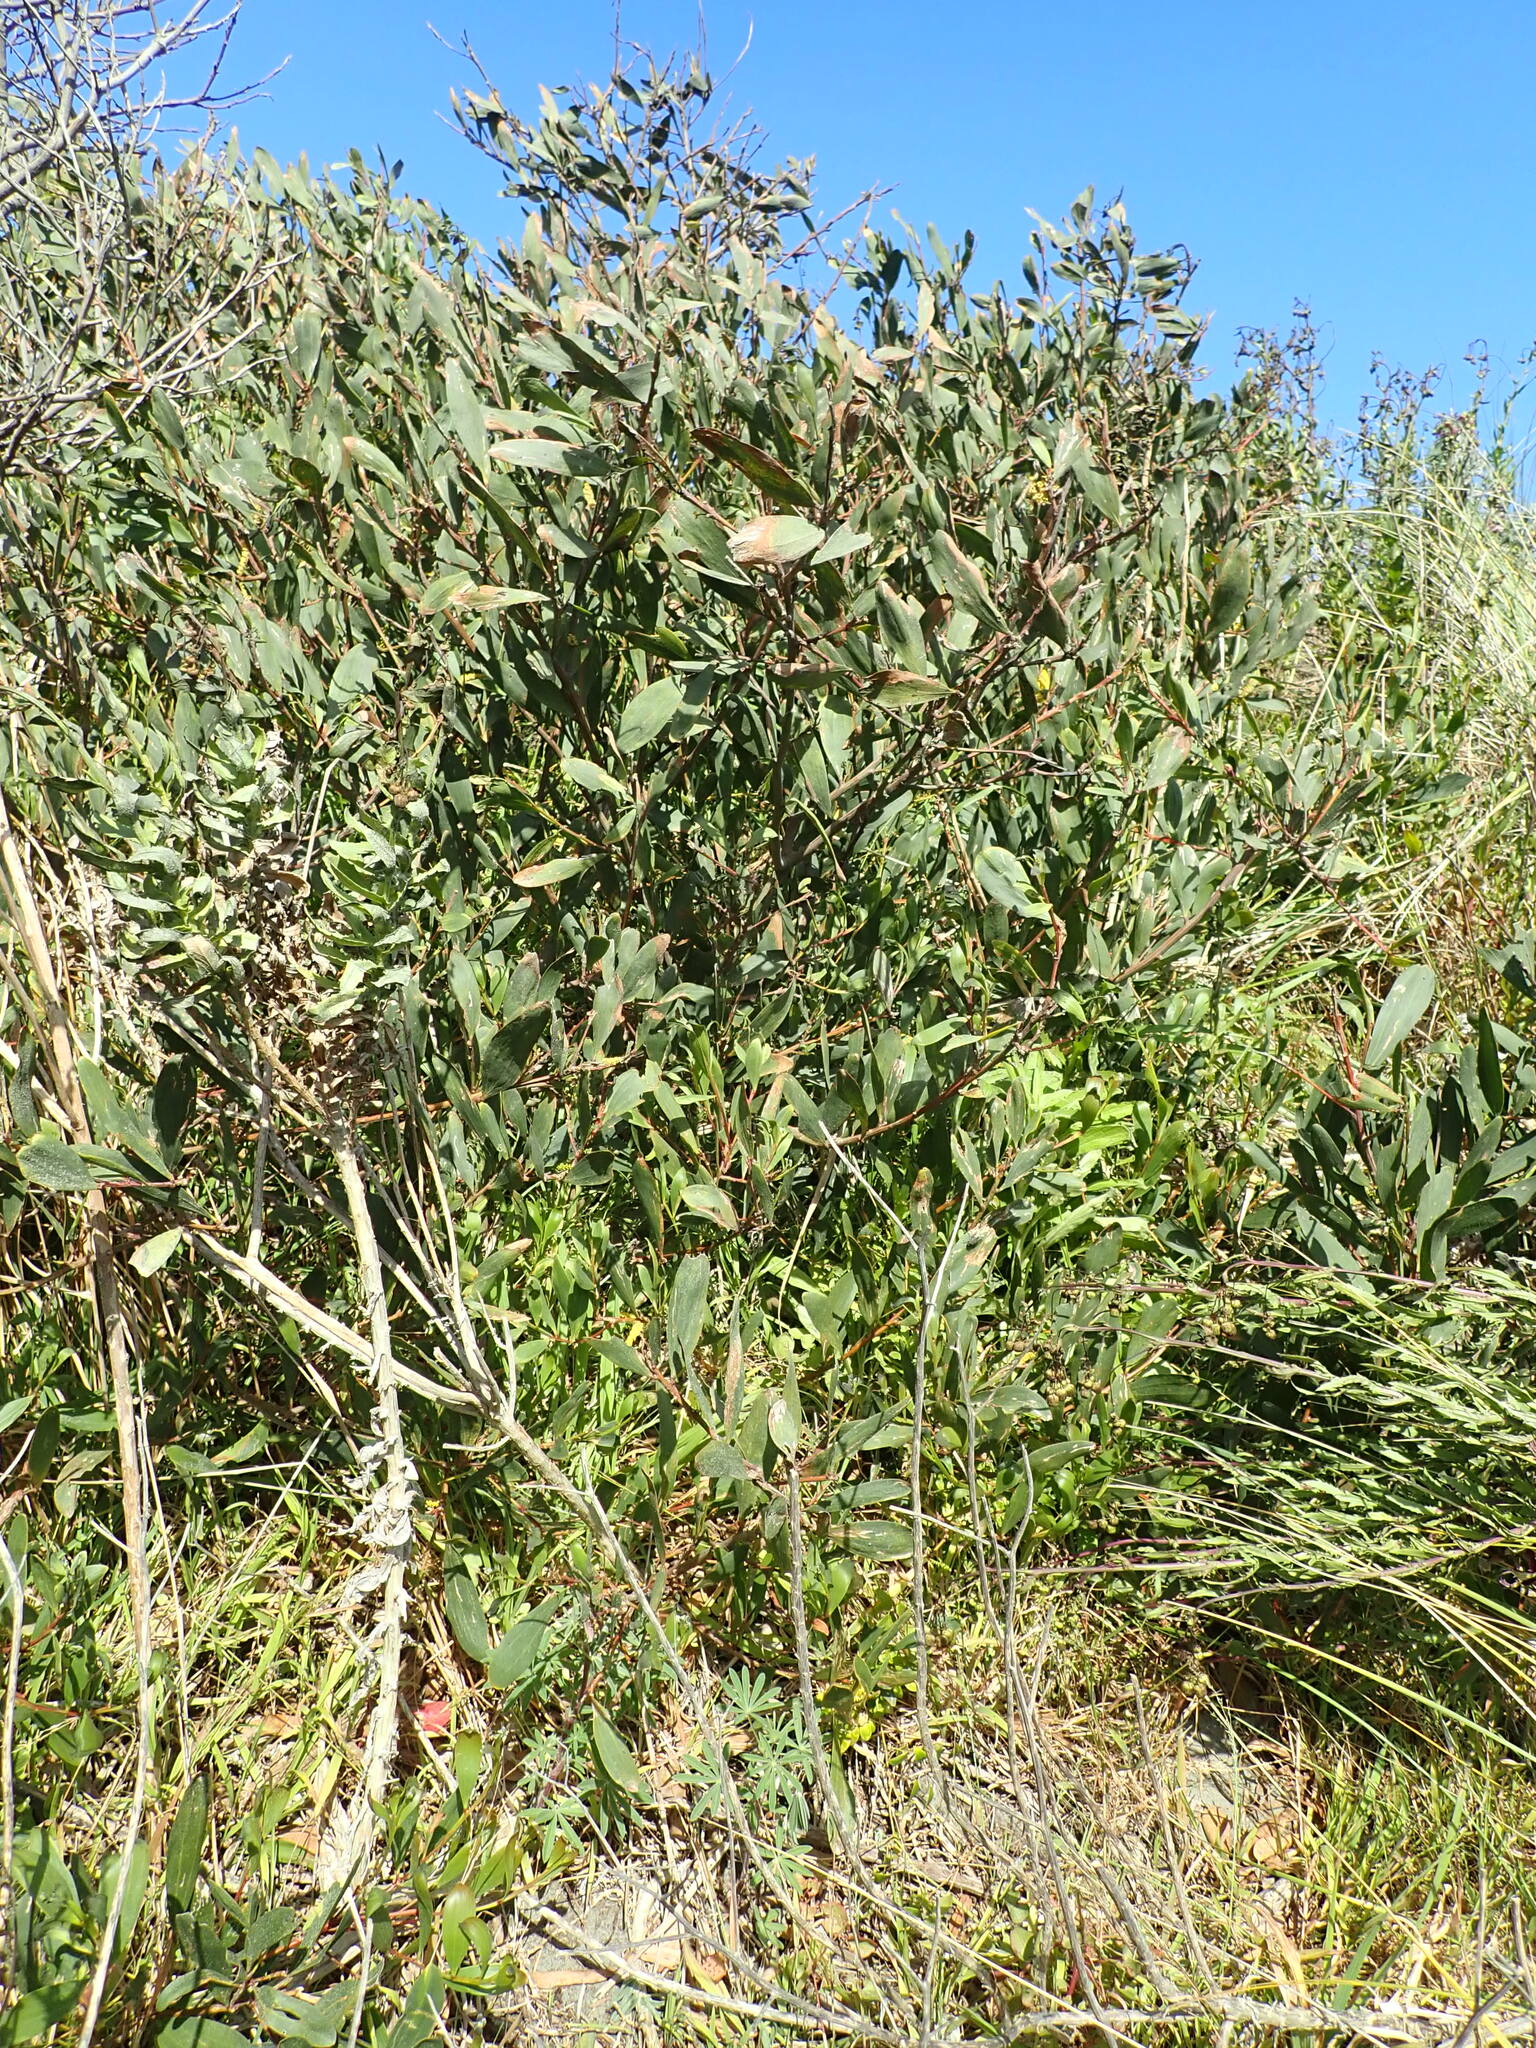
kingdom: Plantae
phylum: Tracheophyta
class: Magnoliopsida
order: Fabales
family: Fabaceae
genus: Acacia
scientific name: Acacia longifolia
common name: Sydney golden wattle
